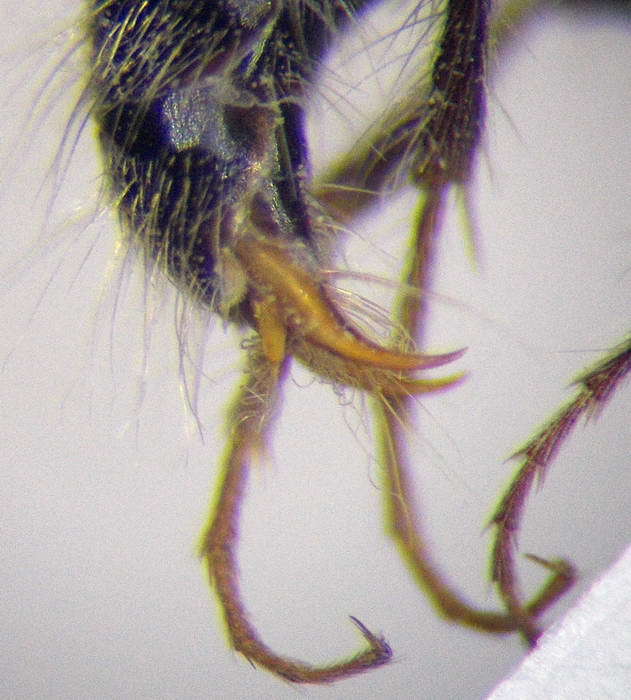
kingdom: Animalia
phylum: Arthropoda
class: Insecta
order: Hymenoptera
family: Mutillidae
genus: Smicromyrme
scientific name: Smicromyrme rufipes
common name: Small velvet ant
